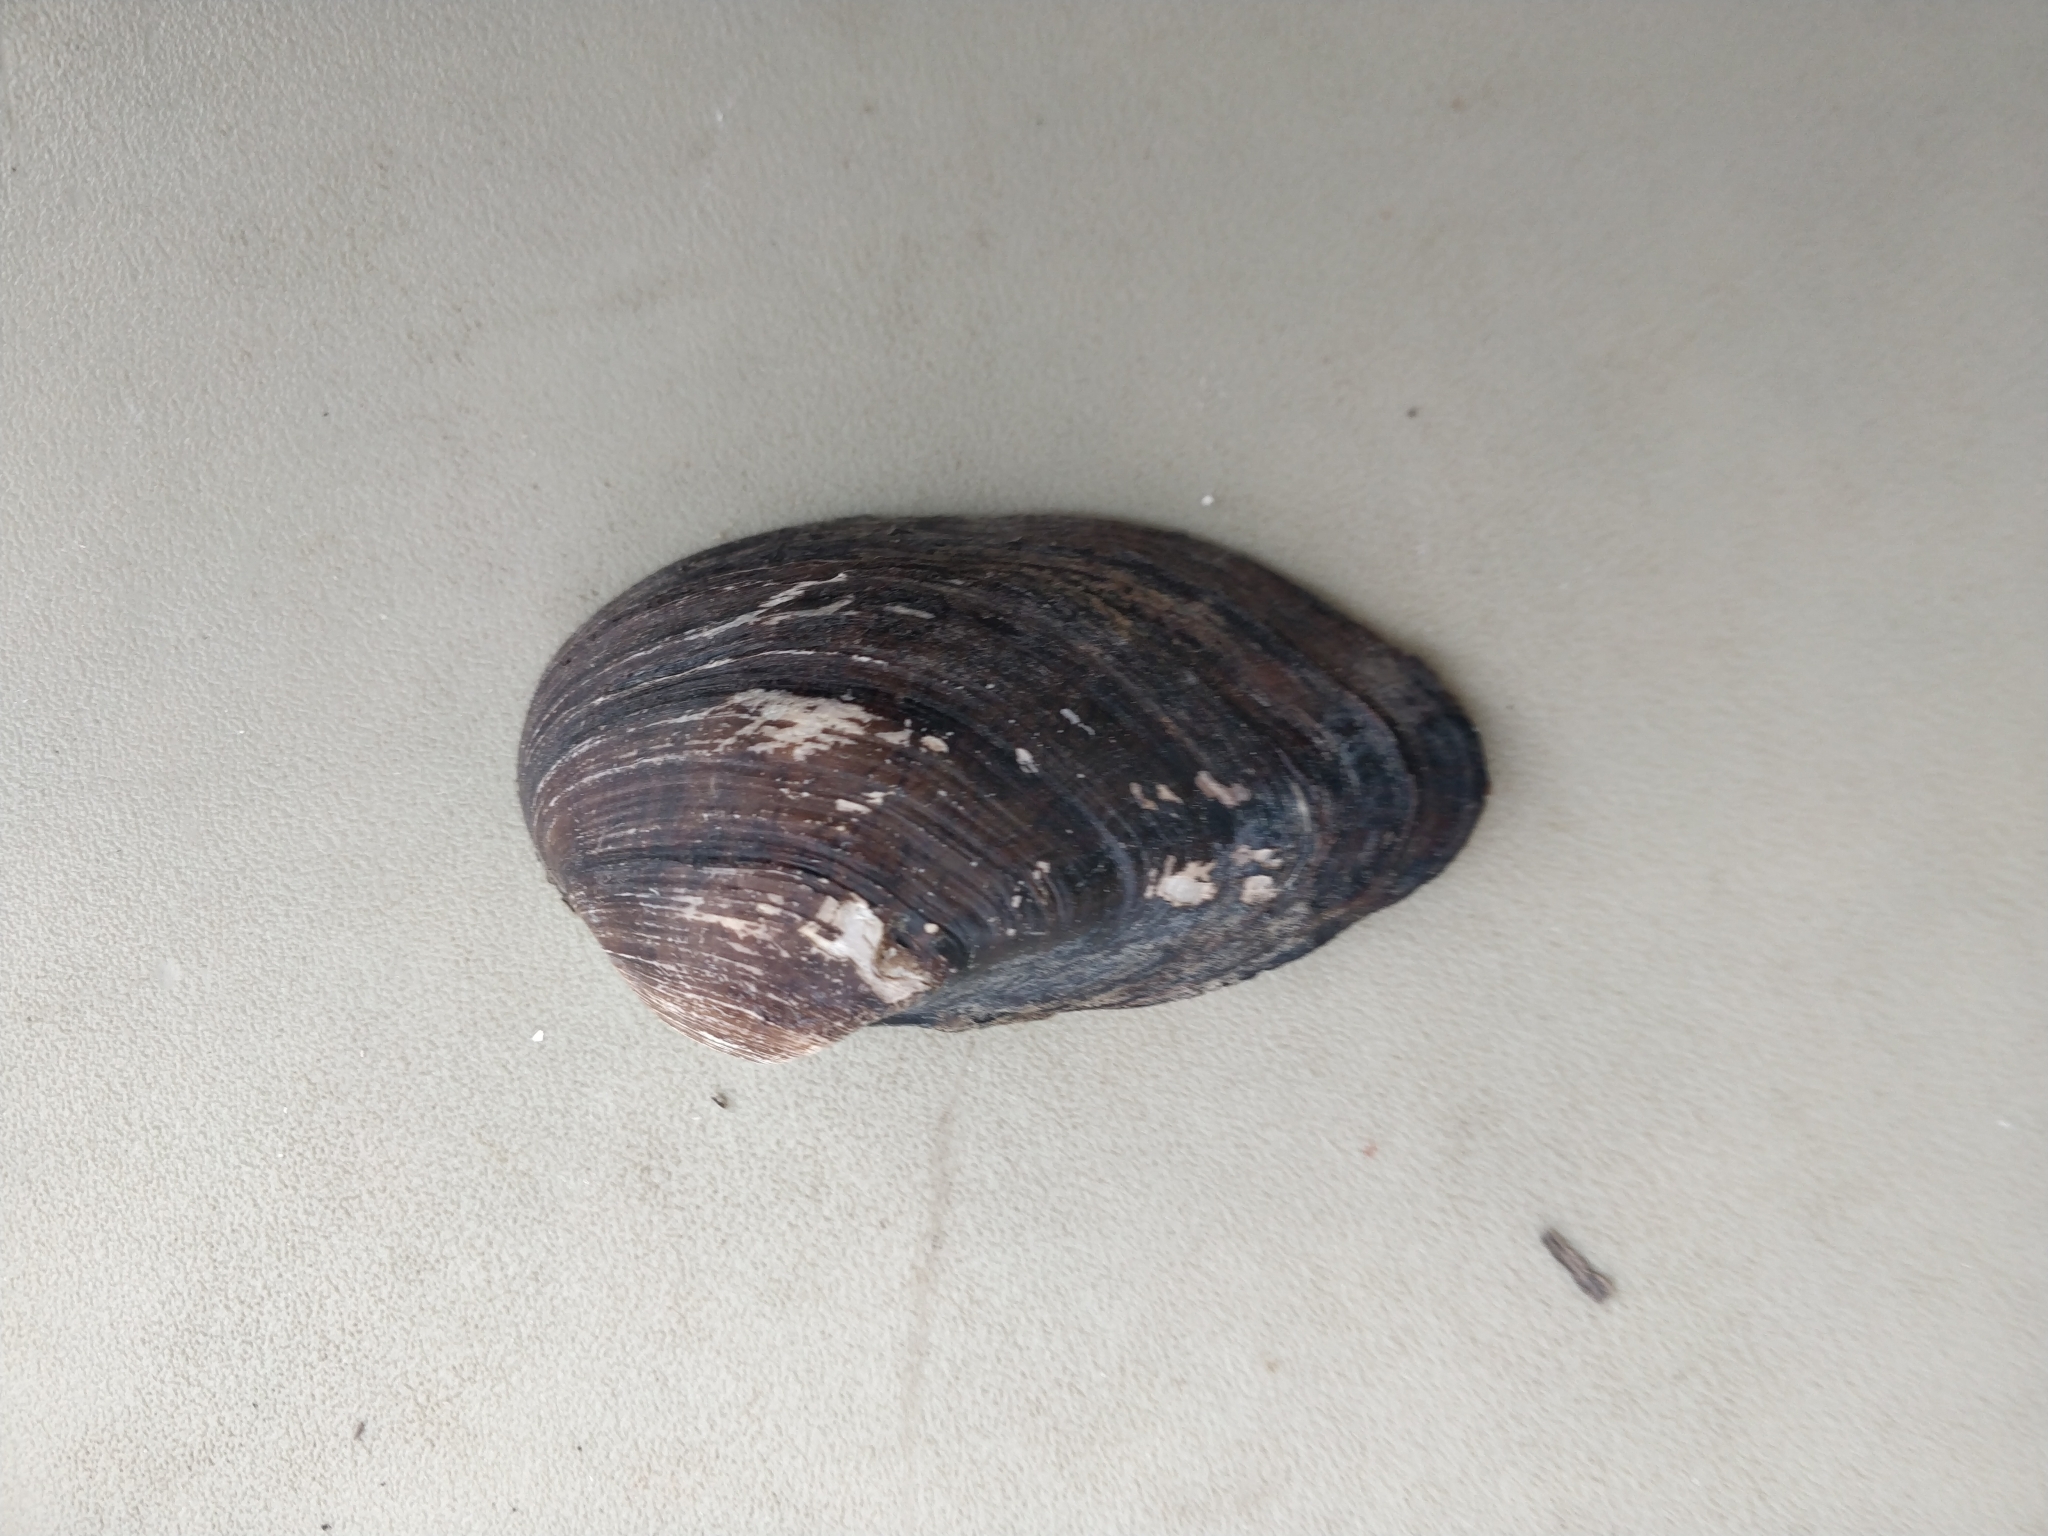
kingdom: Animalia
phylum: Mollusca
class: Bivalvia
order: Unionida
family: Unionidae
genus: Truncilla
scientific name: Truncilla truncata
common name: Deertoe
